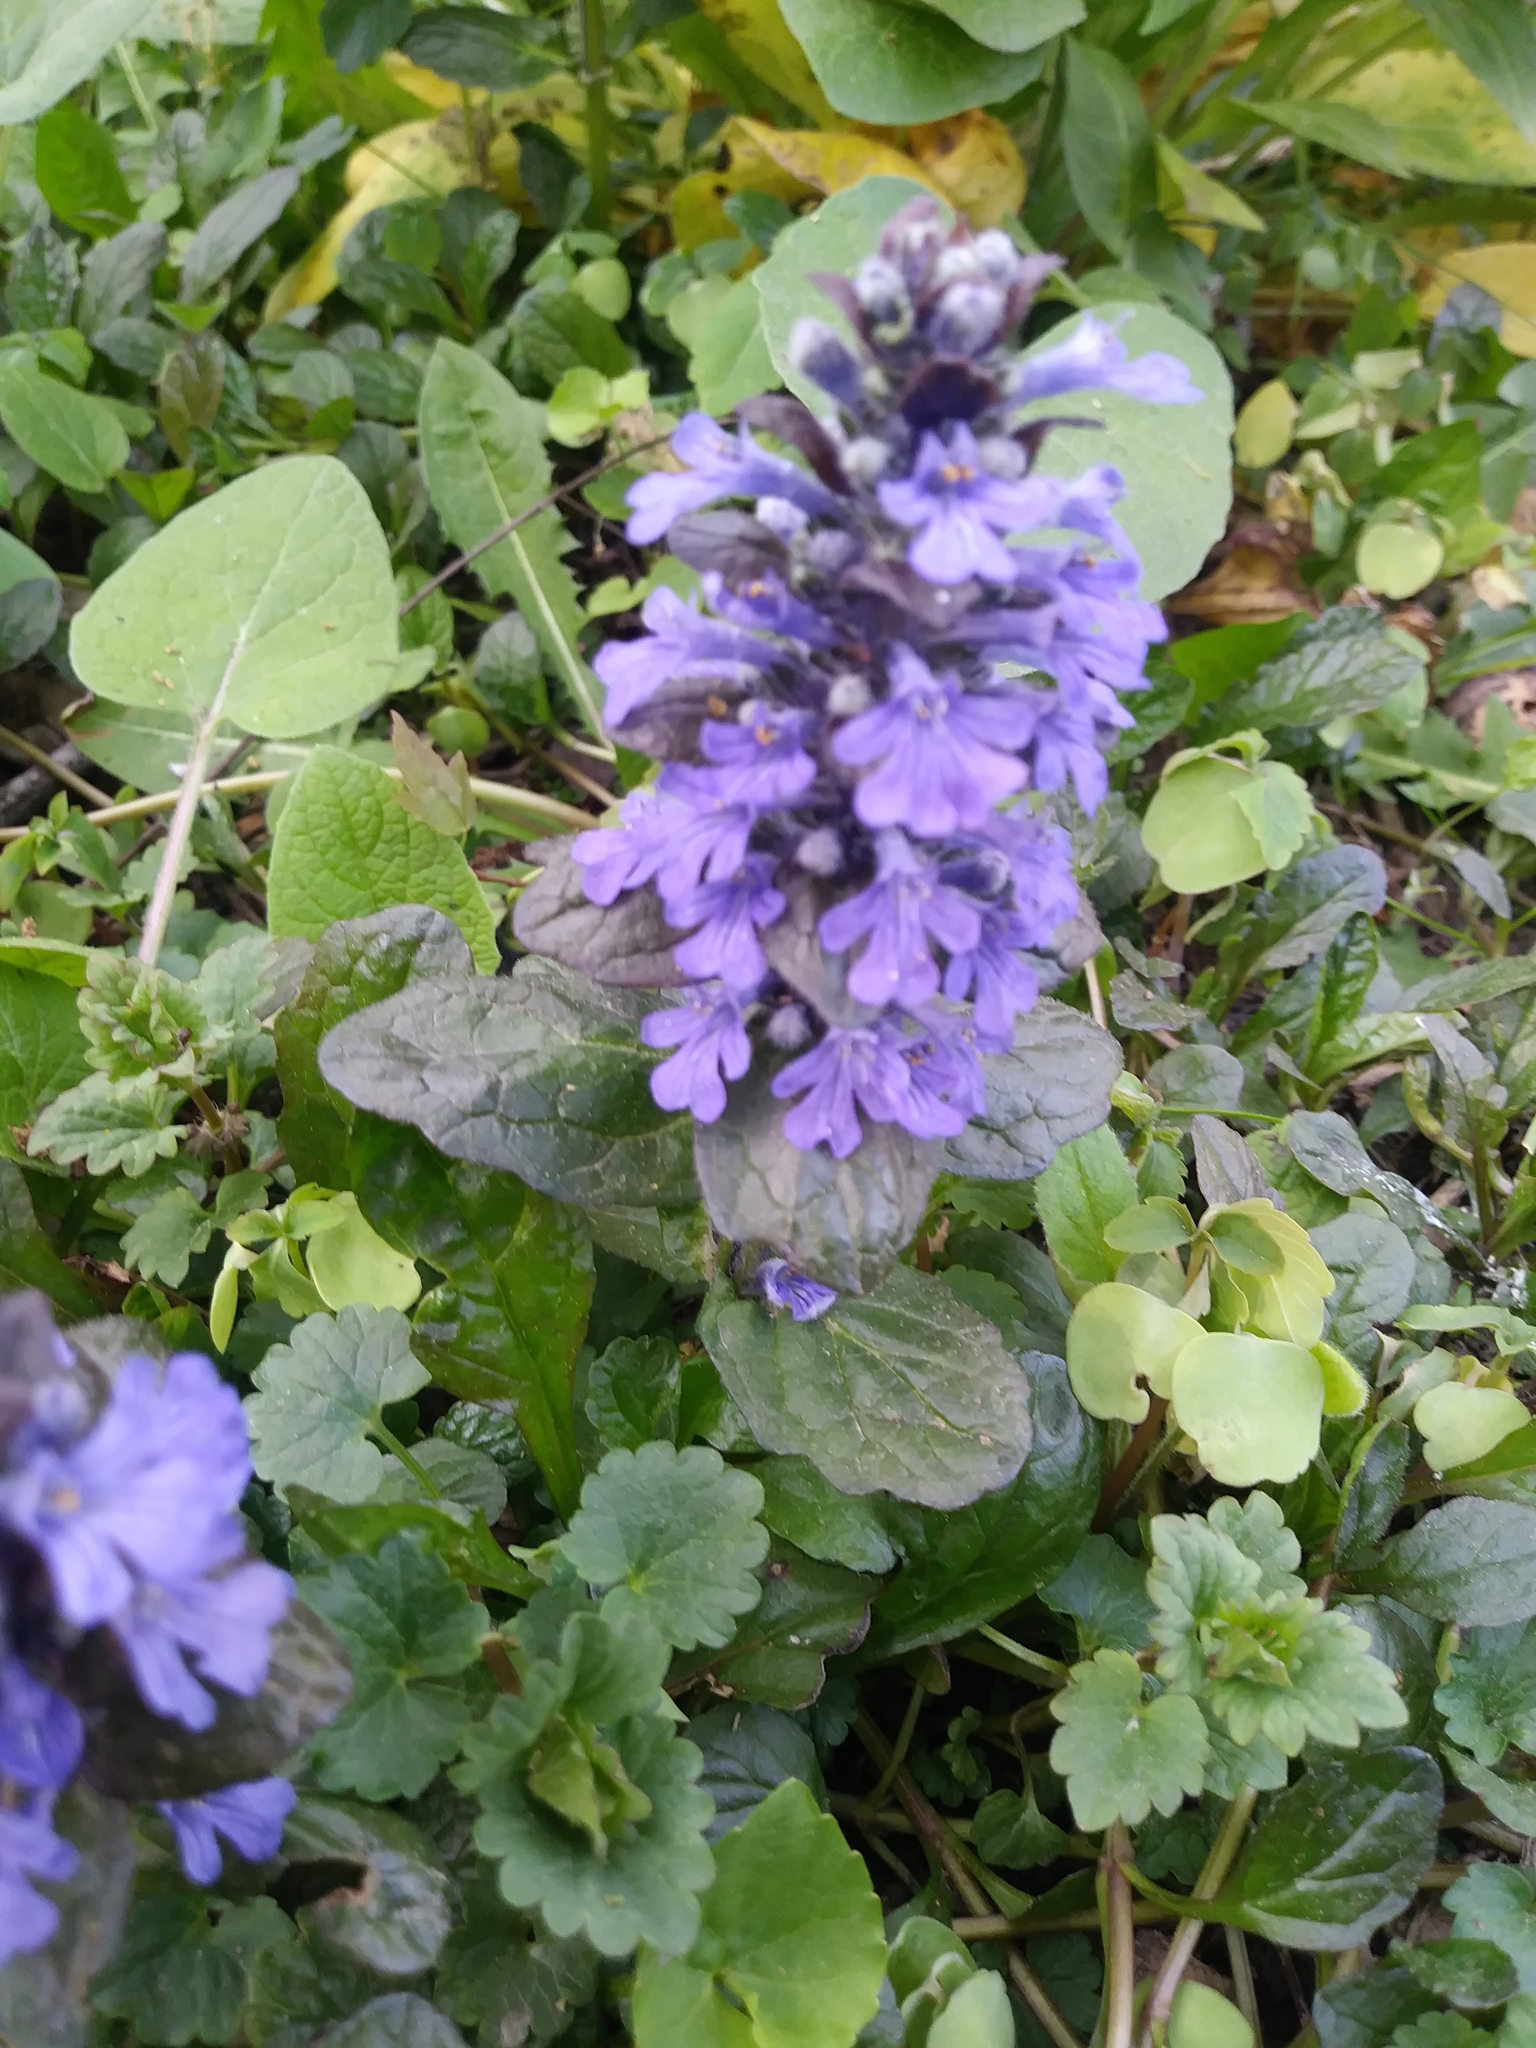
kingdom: Plantae
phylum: Tracheophyta
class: Magnoliopsida
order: Lamiales
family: Lamiaceae
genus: Ajuga
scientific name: Ajuga reptans
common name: Bugle
